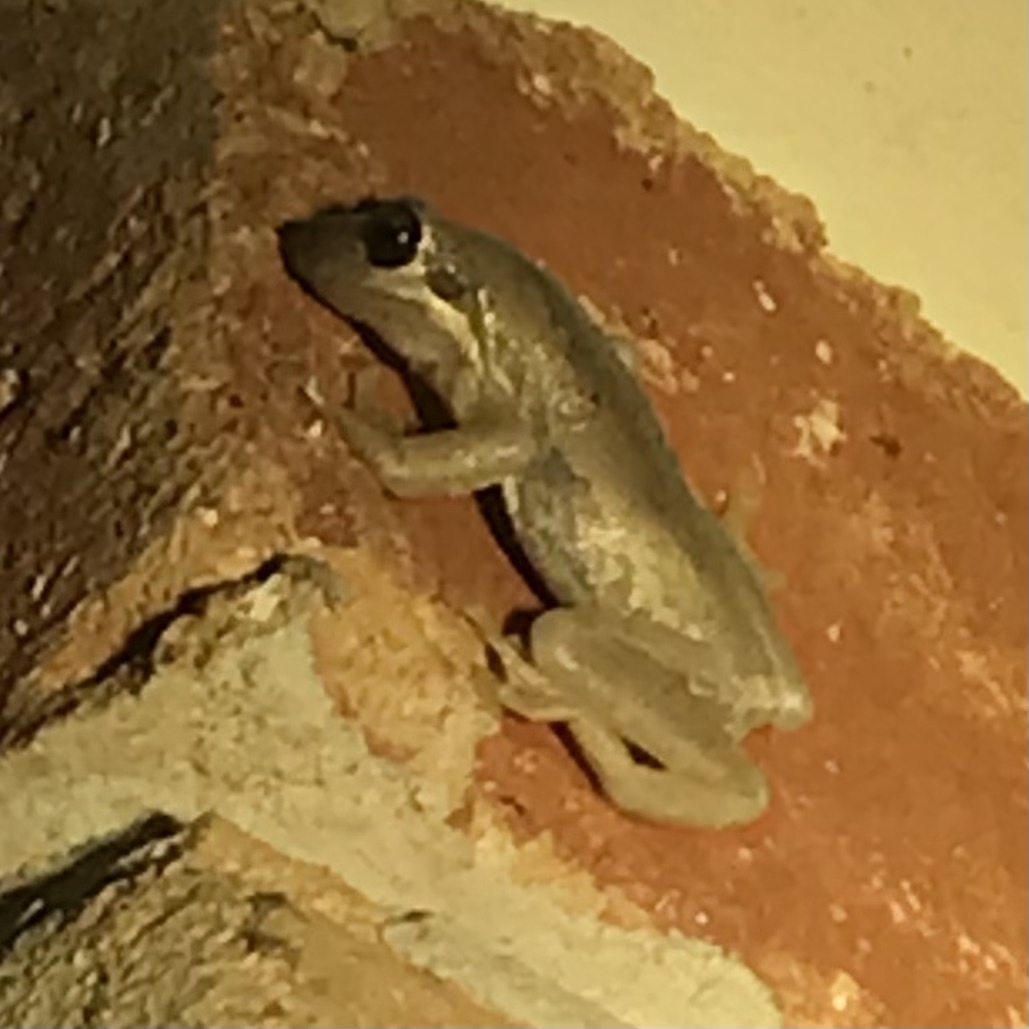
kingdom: Animalia
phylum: Chordata
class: Amphibia
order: Anura
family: Pelodryadidae
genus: Litoria
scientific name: Litoria dentata
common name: Bleating tree frog
